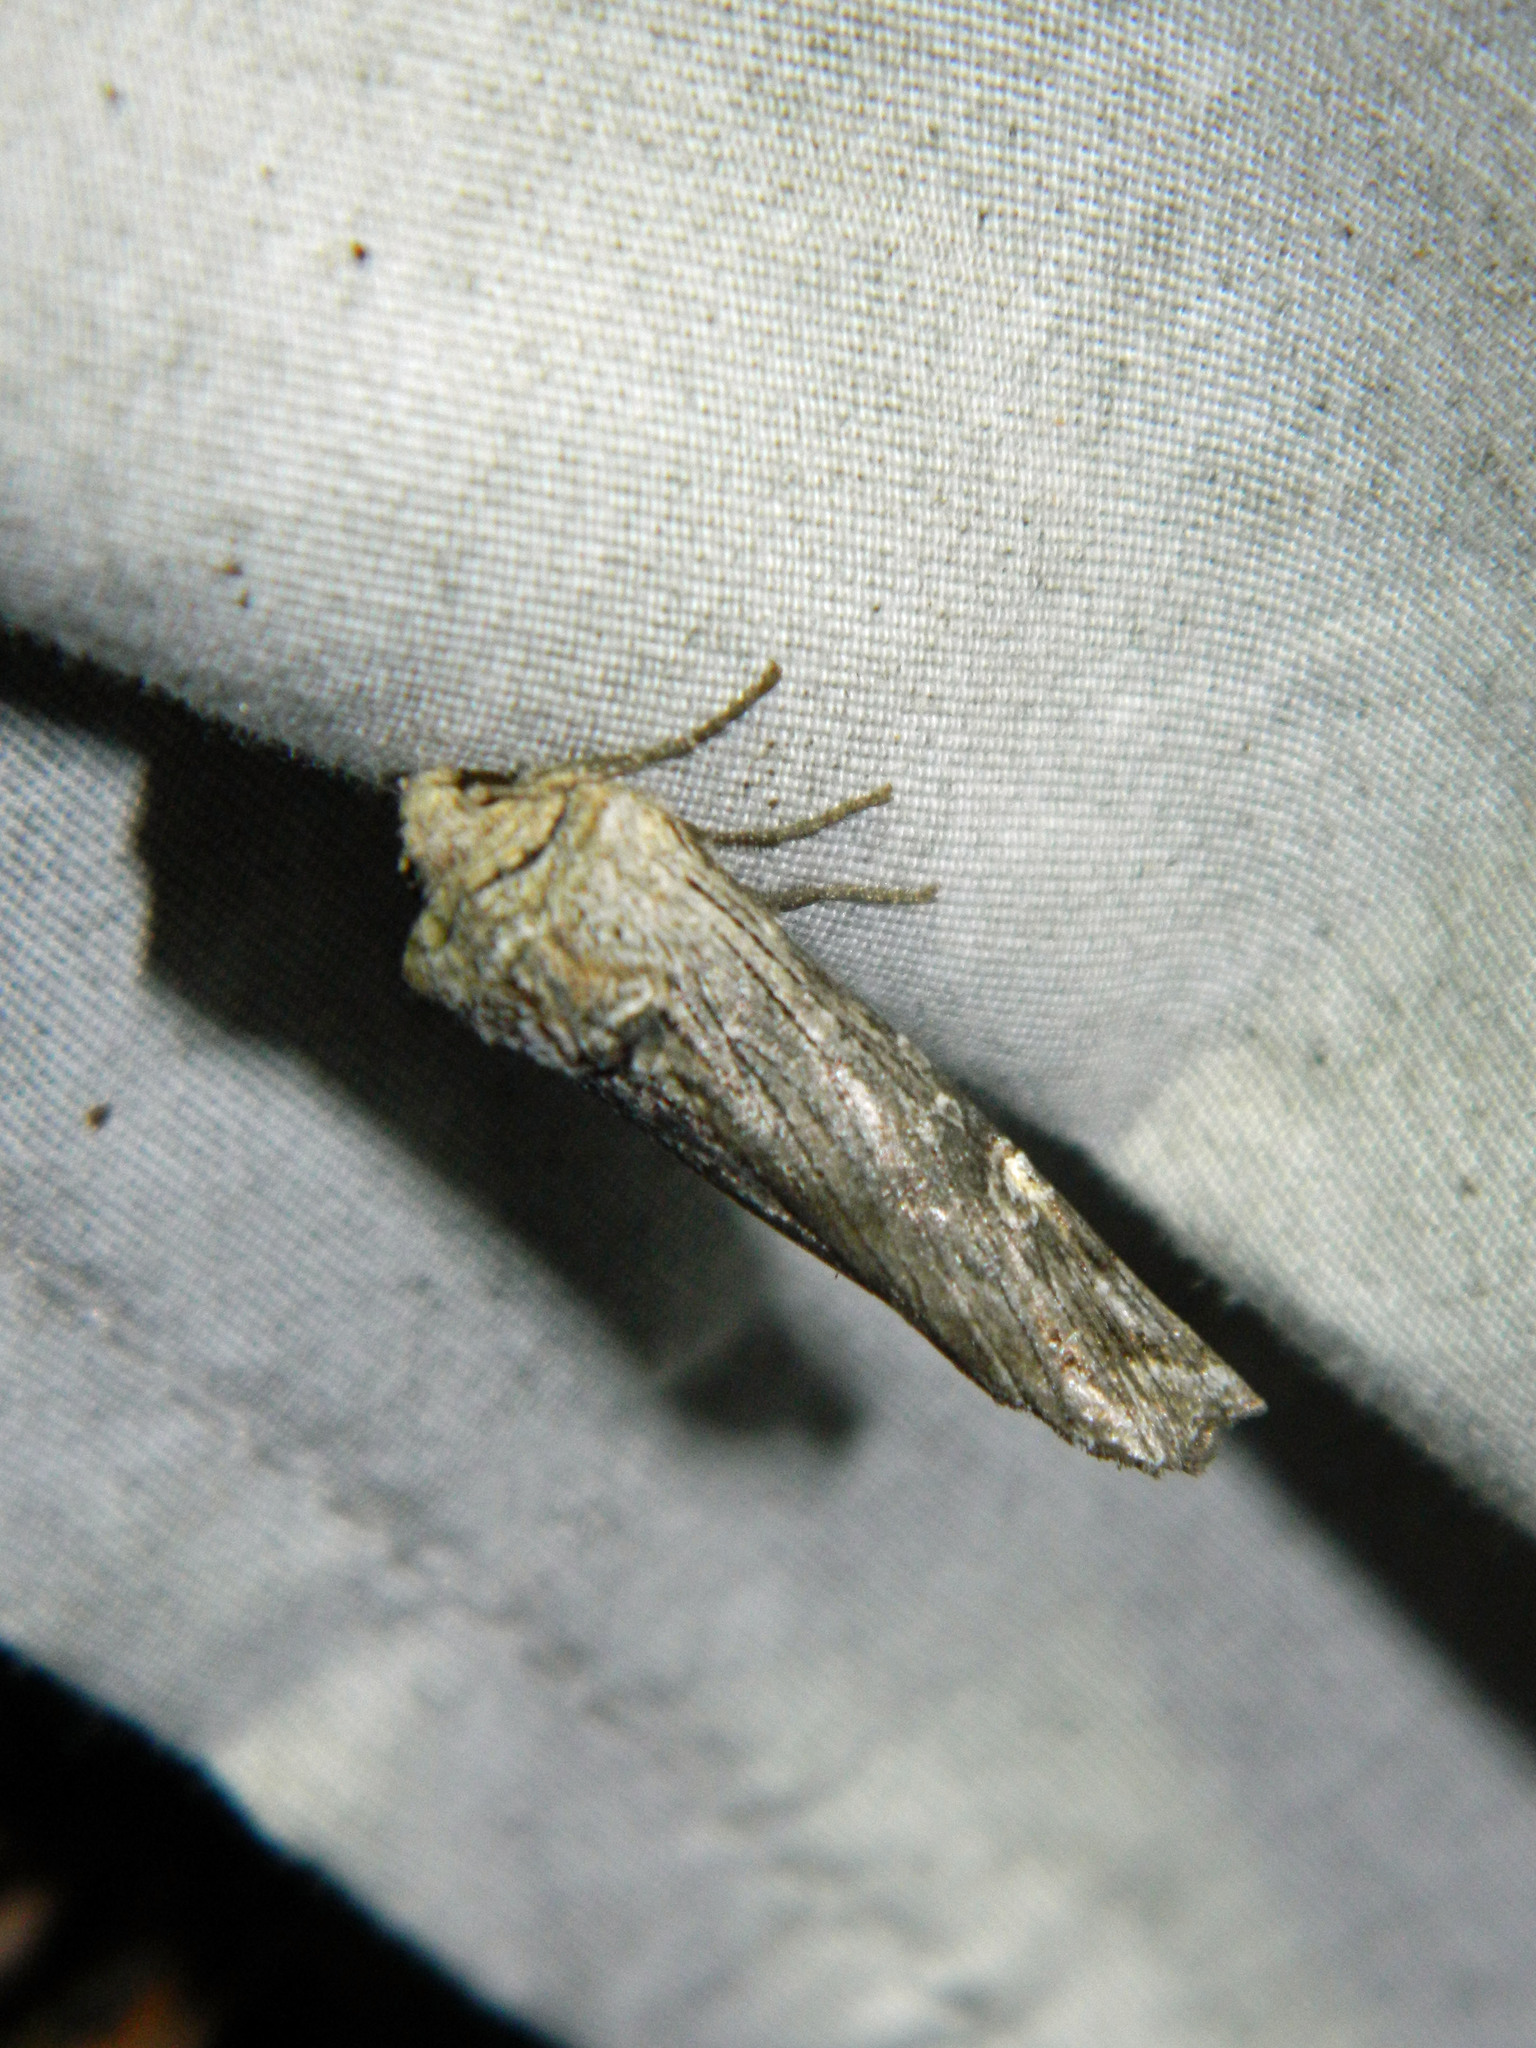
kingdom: Animalia
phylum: Arthropoda
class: Insecta
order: Lepidoptera
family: Noctuidae
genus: Xylena
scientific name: Xylena germana
